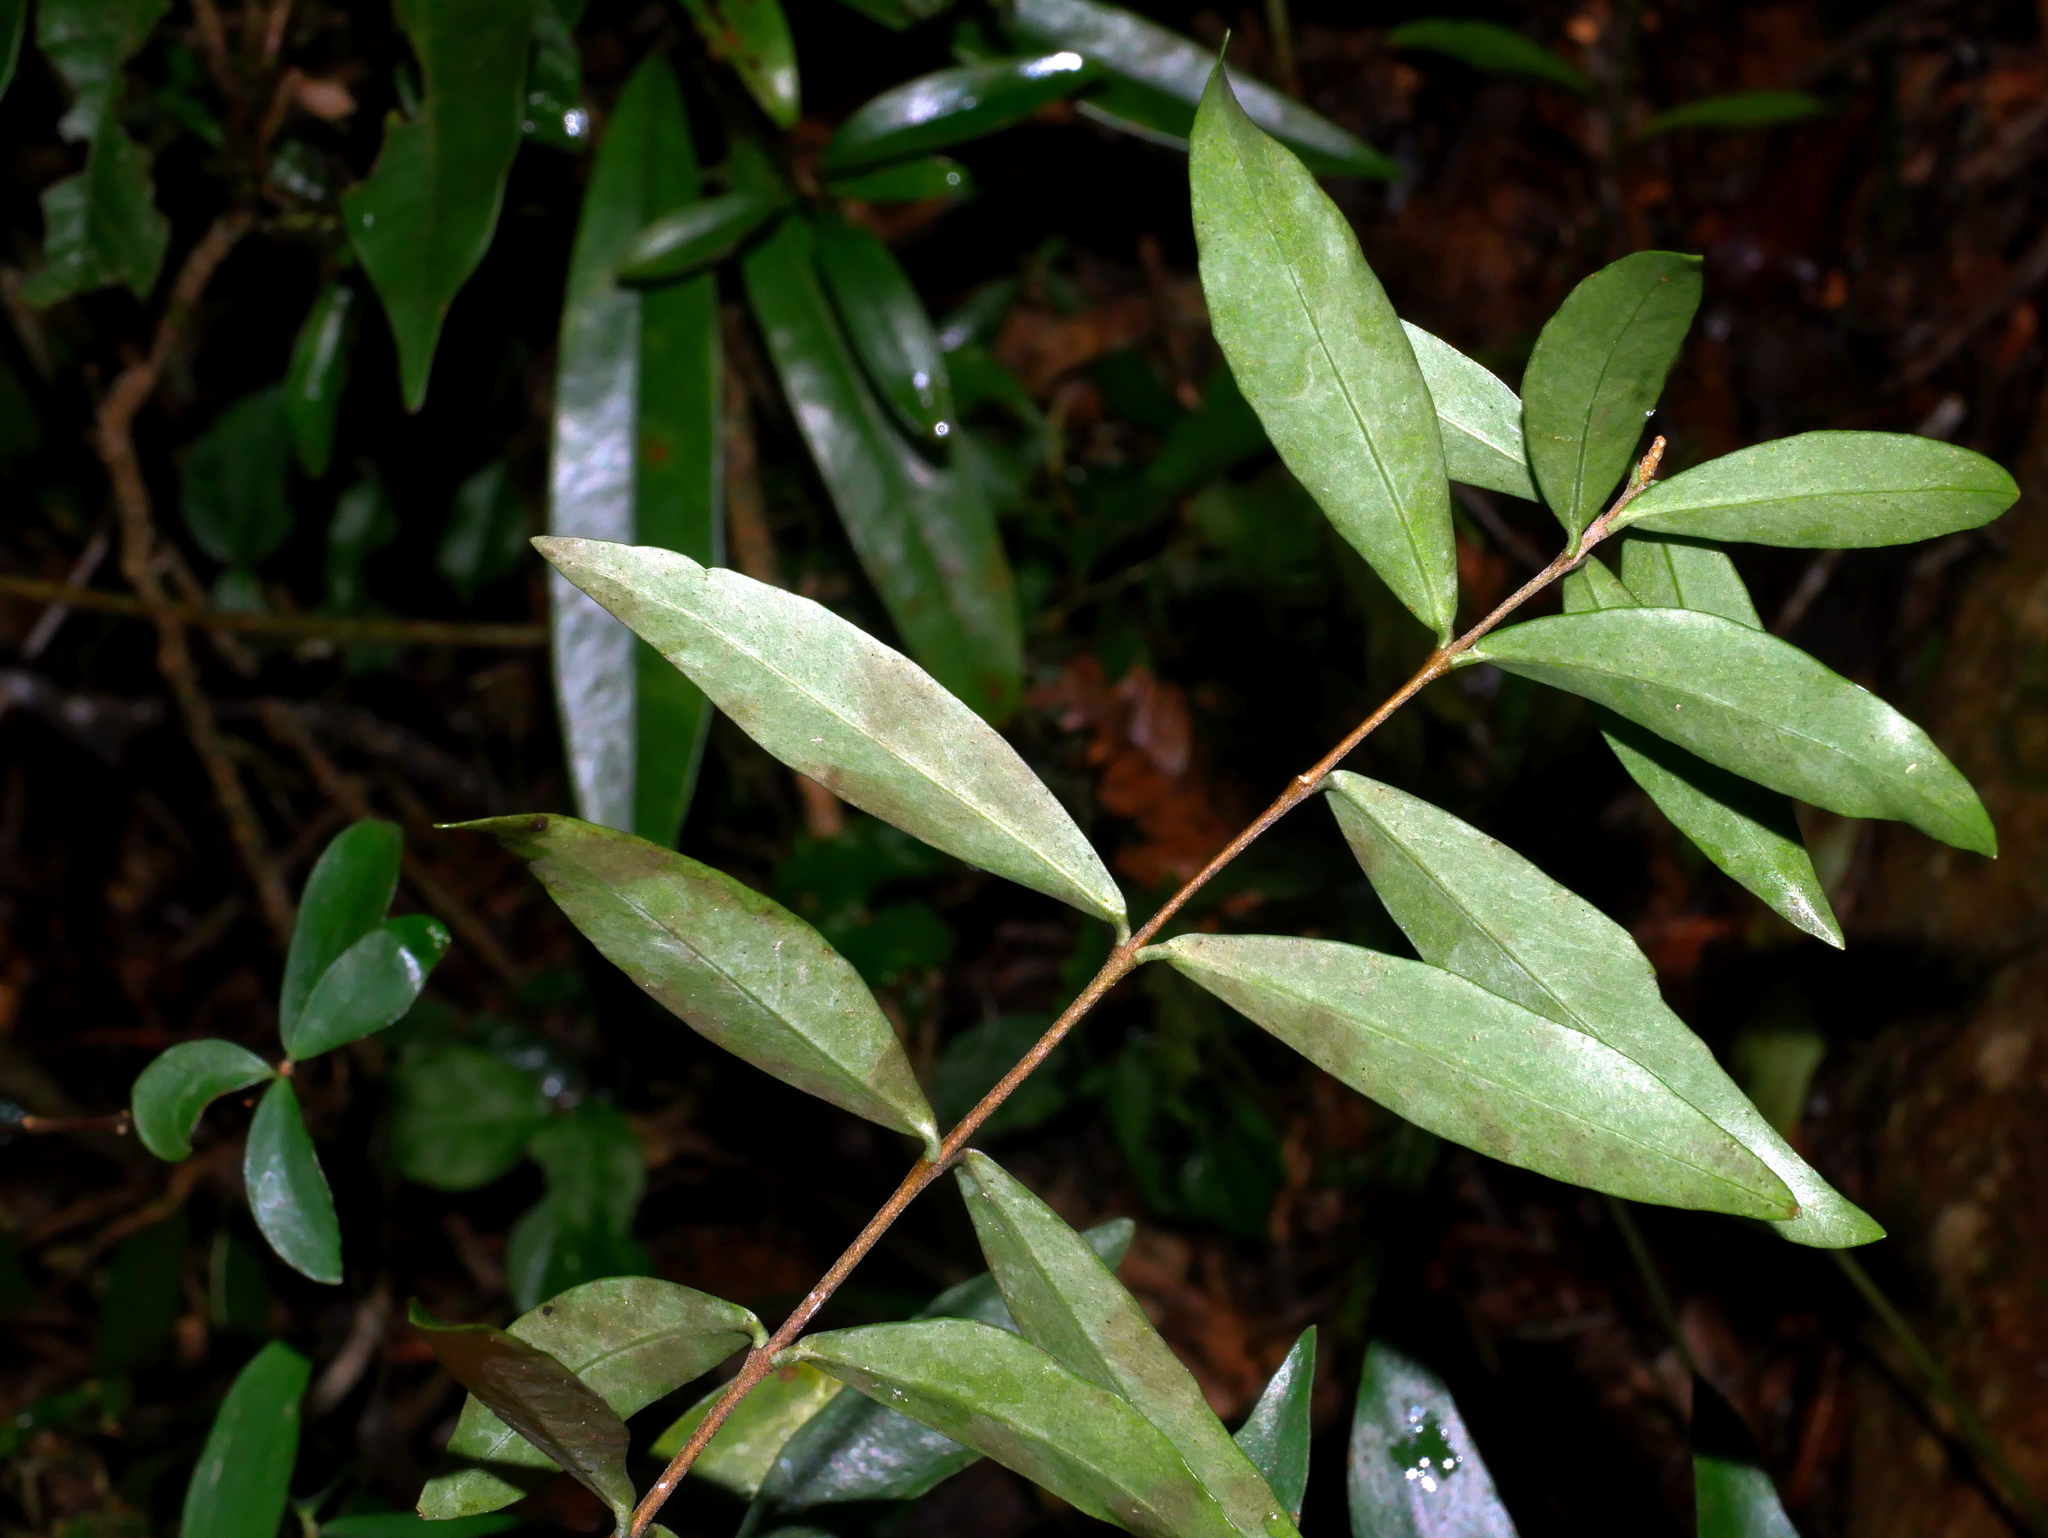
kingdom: Plantae
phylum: Tracheophyta
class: Magnoliopsida
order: Malvales
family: Thymelaeaceae
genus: Wikstroemia
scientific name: Wikstroemia lanceolata
